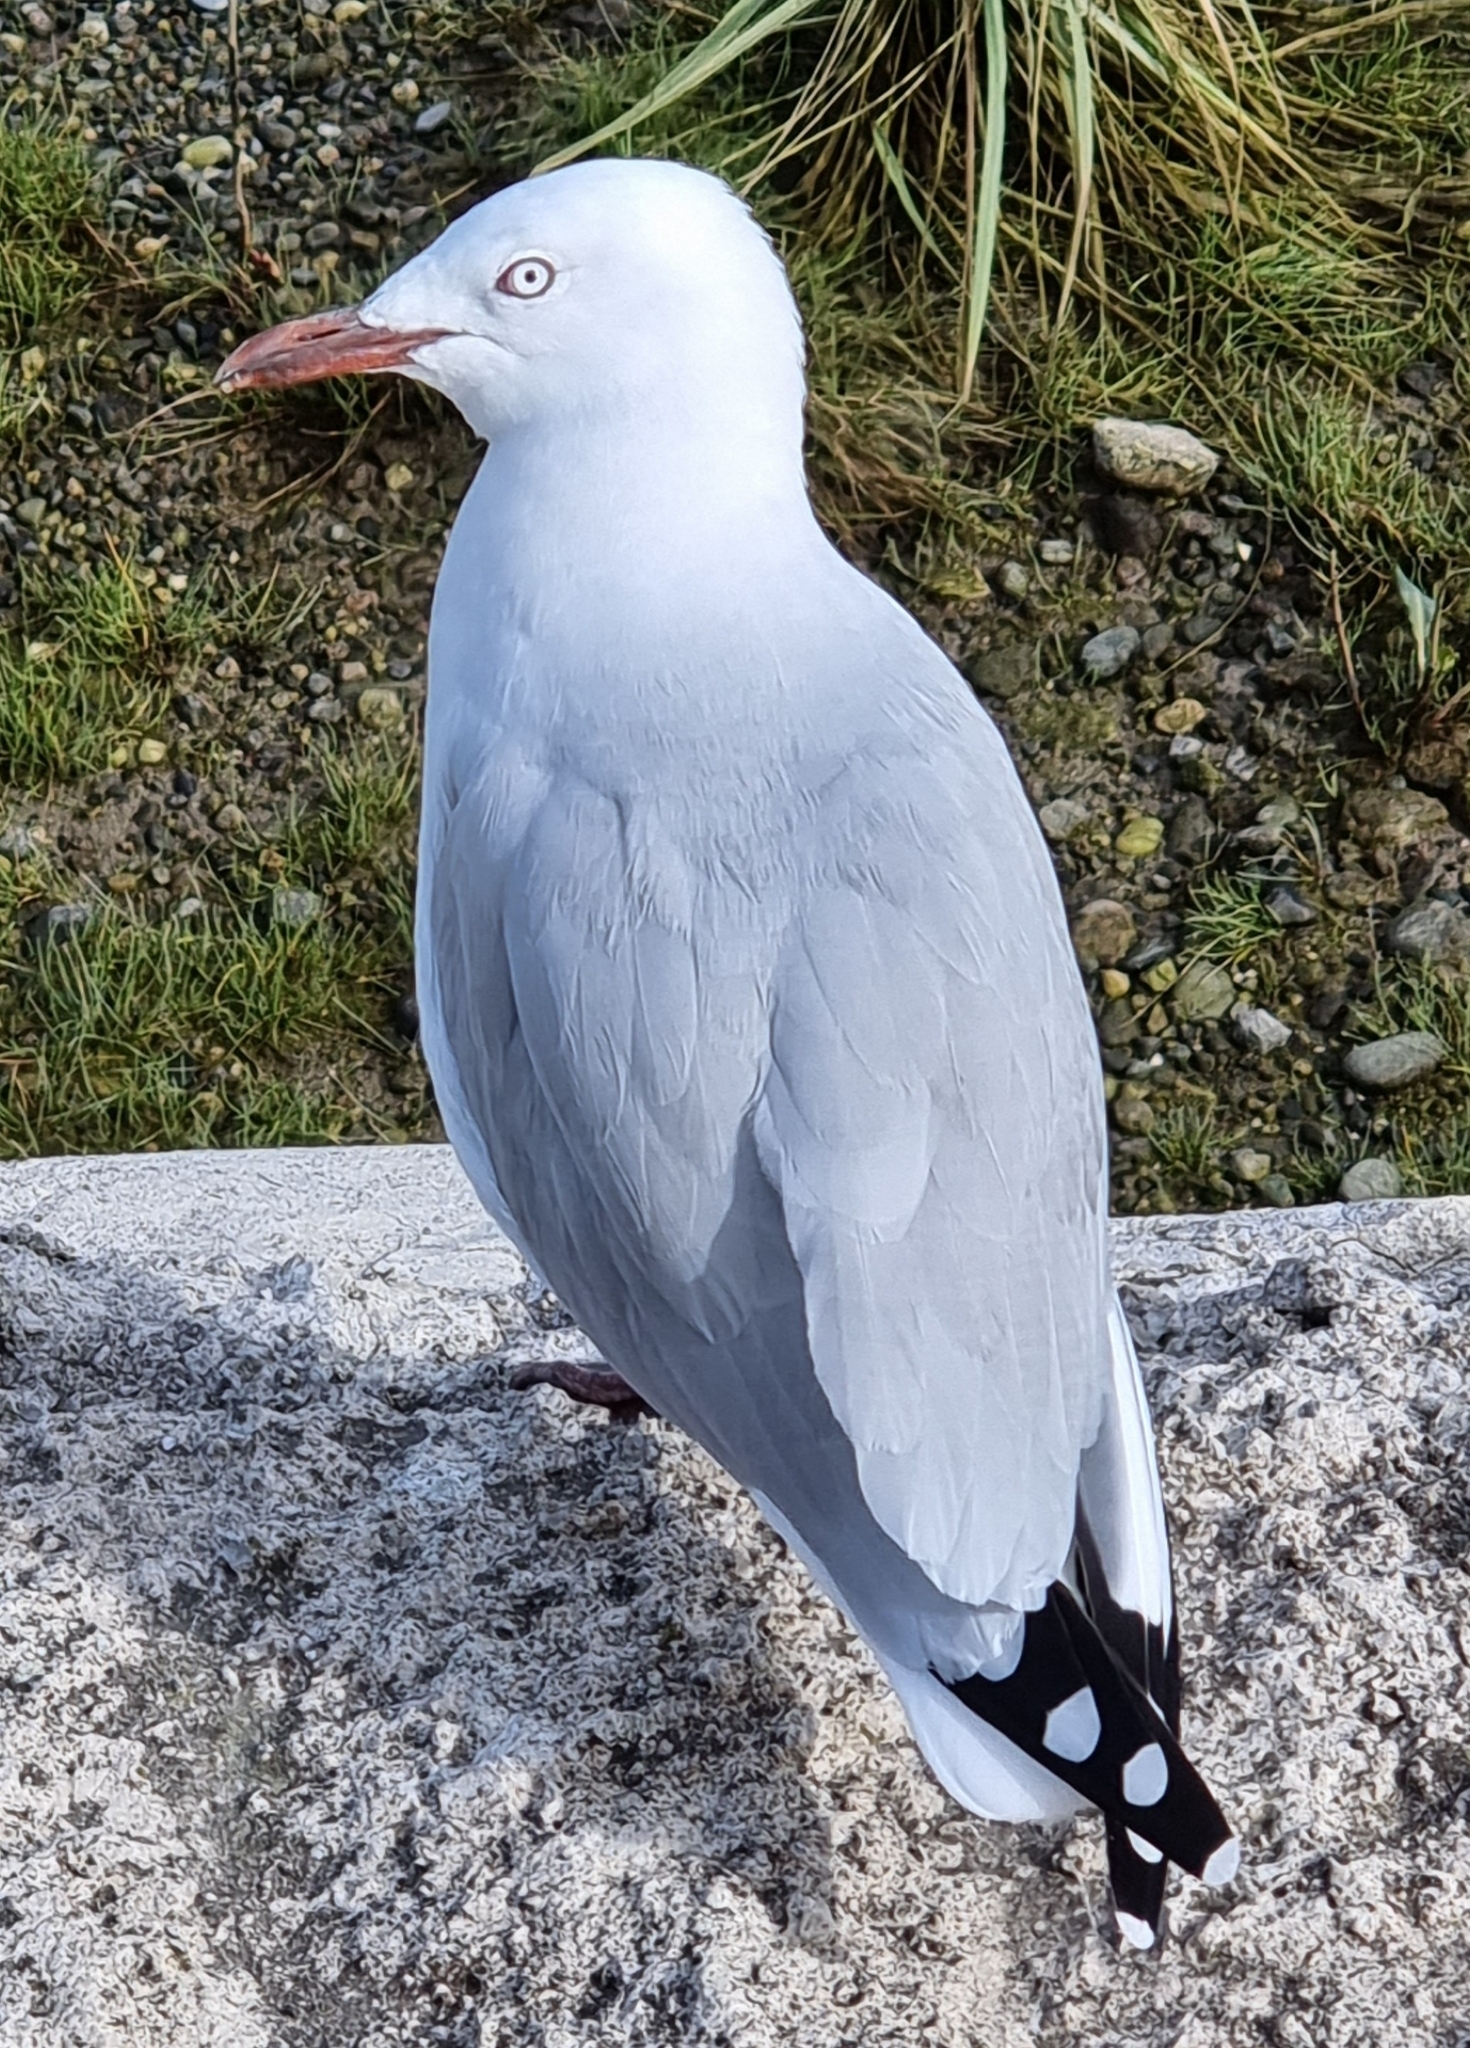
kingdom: Animalia
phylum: Chordata
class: Aves
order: Charadriiformes
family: Laridae
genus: Chroicocephalus
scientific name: Chroicocephalus novaehollandiae
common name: Silver gull
